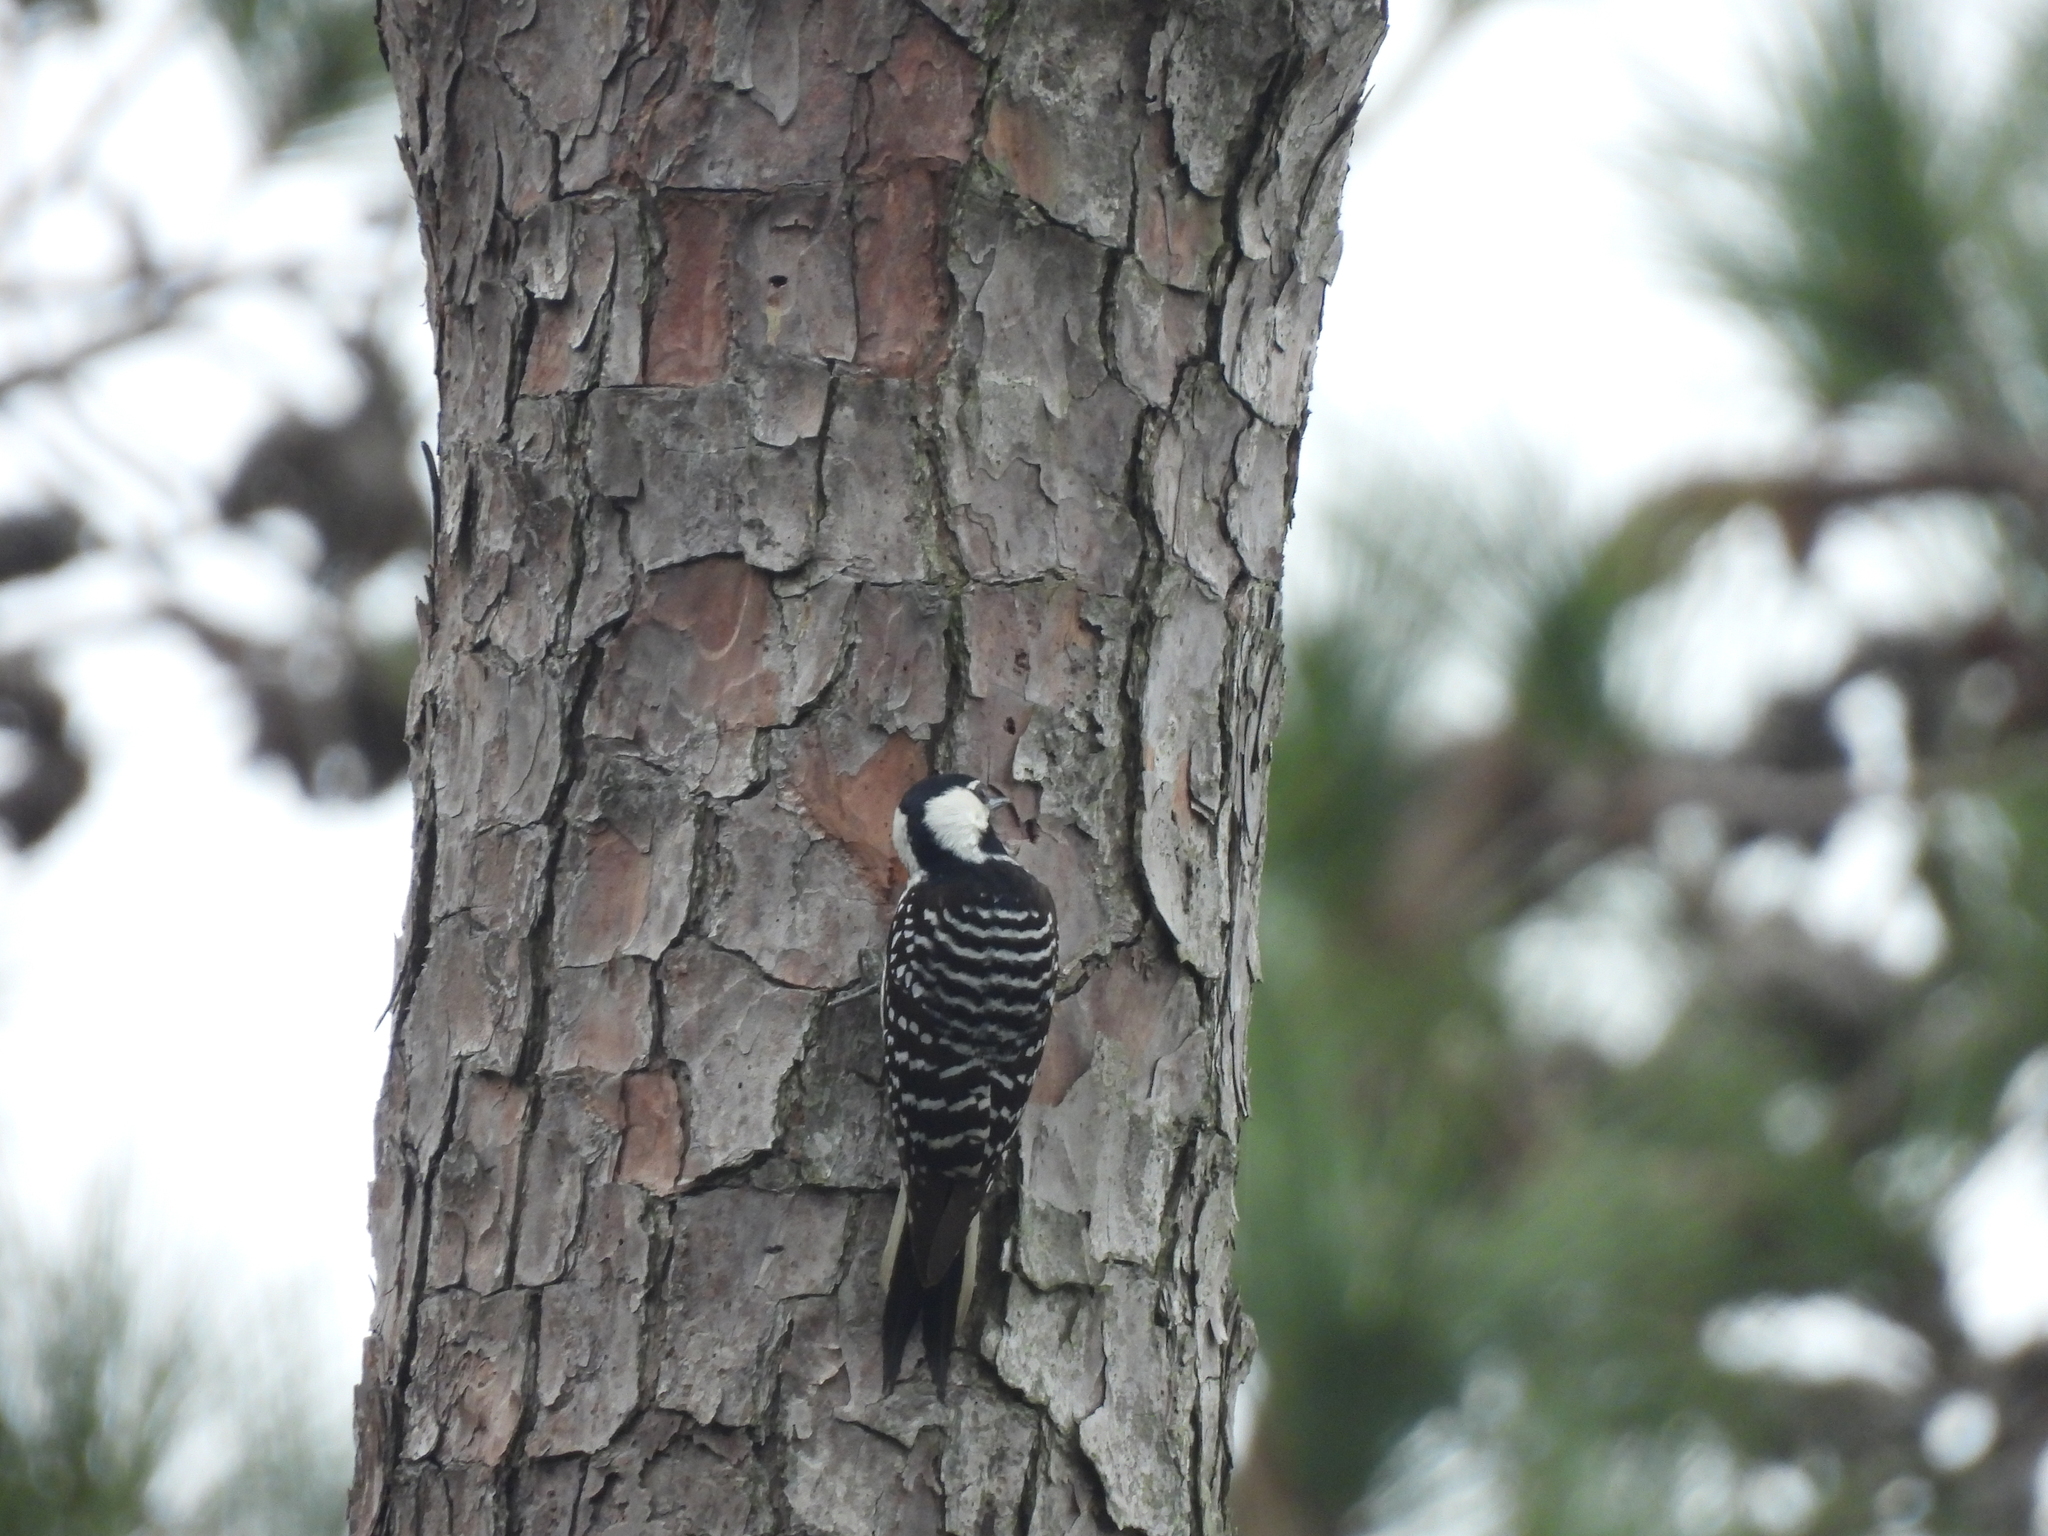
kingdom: Animalia
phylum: Chordata
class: Aves
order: Piciformes
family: Picidae
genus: Leuconotopicus
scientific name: Leuconotopicus borealis
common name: Red-cockaded woodpecker
